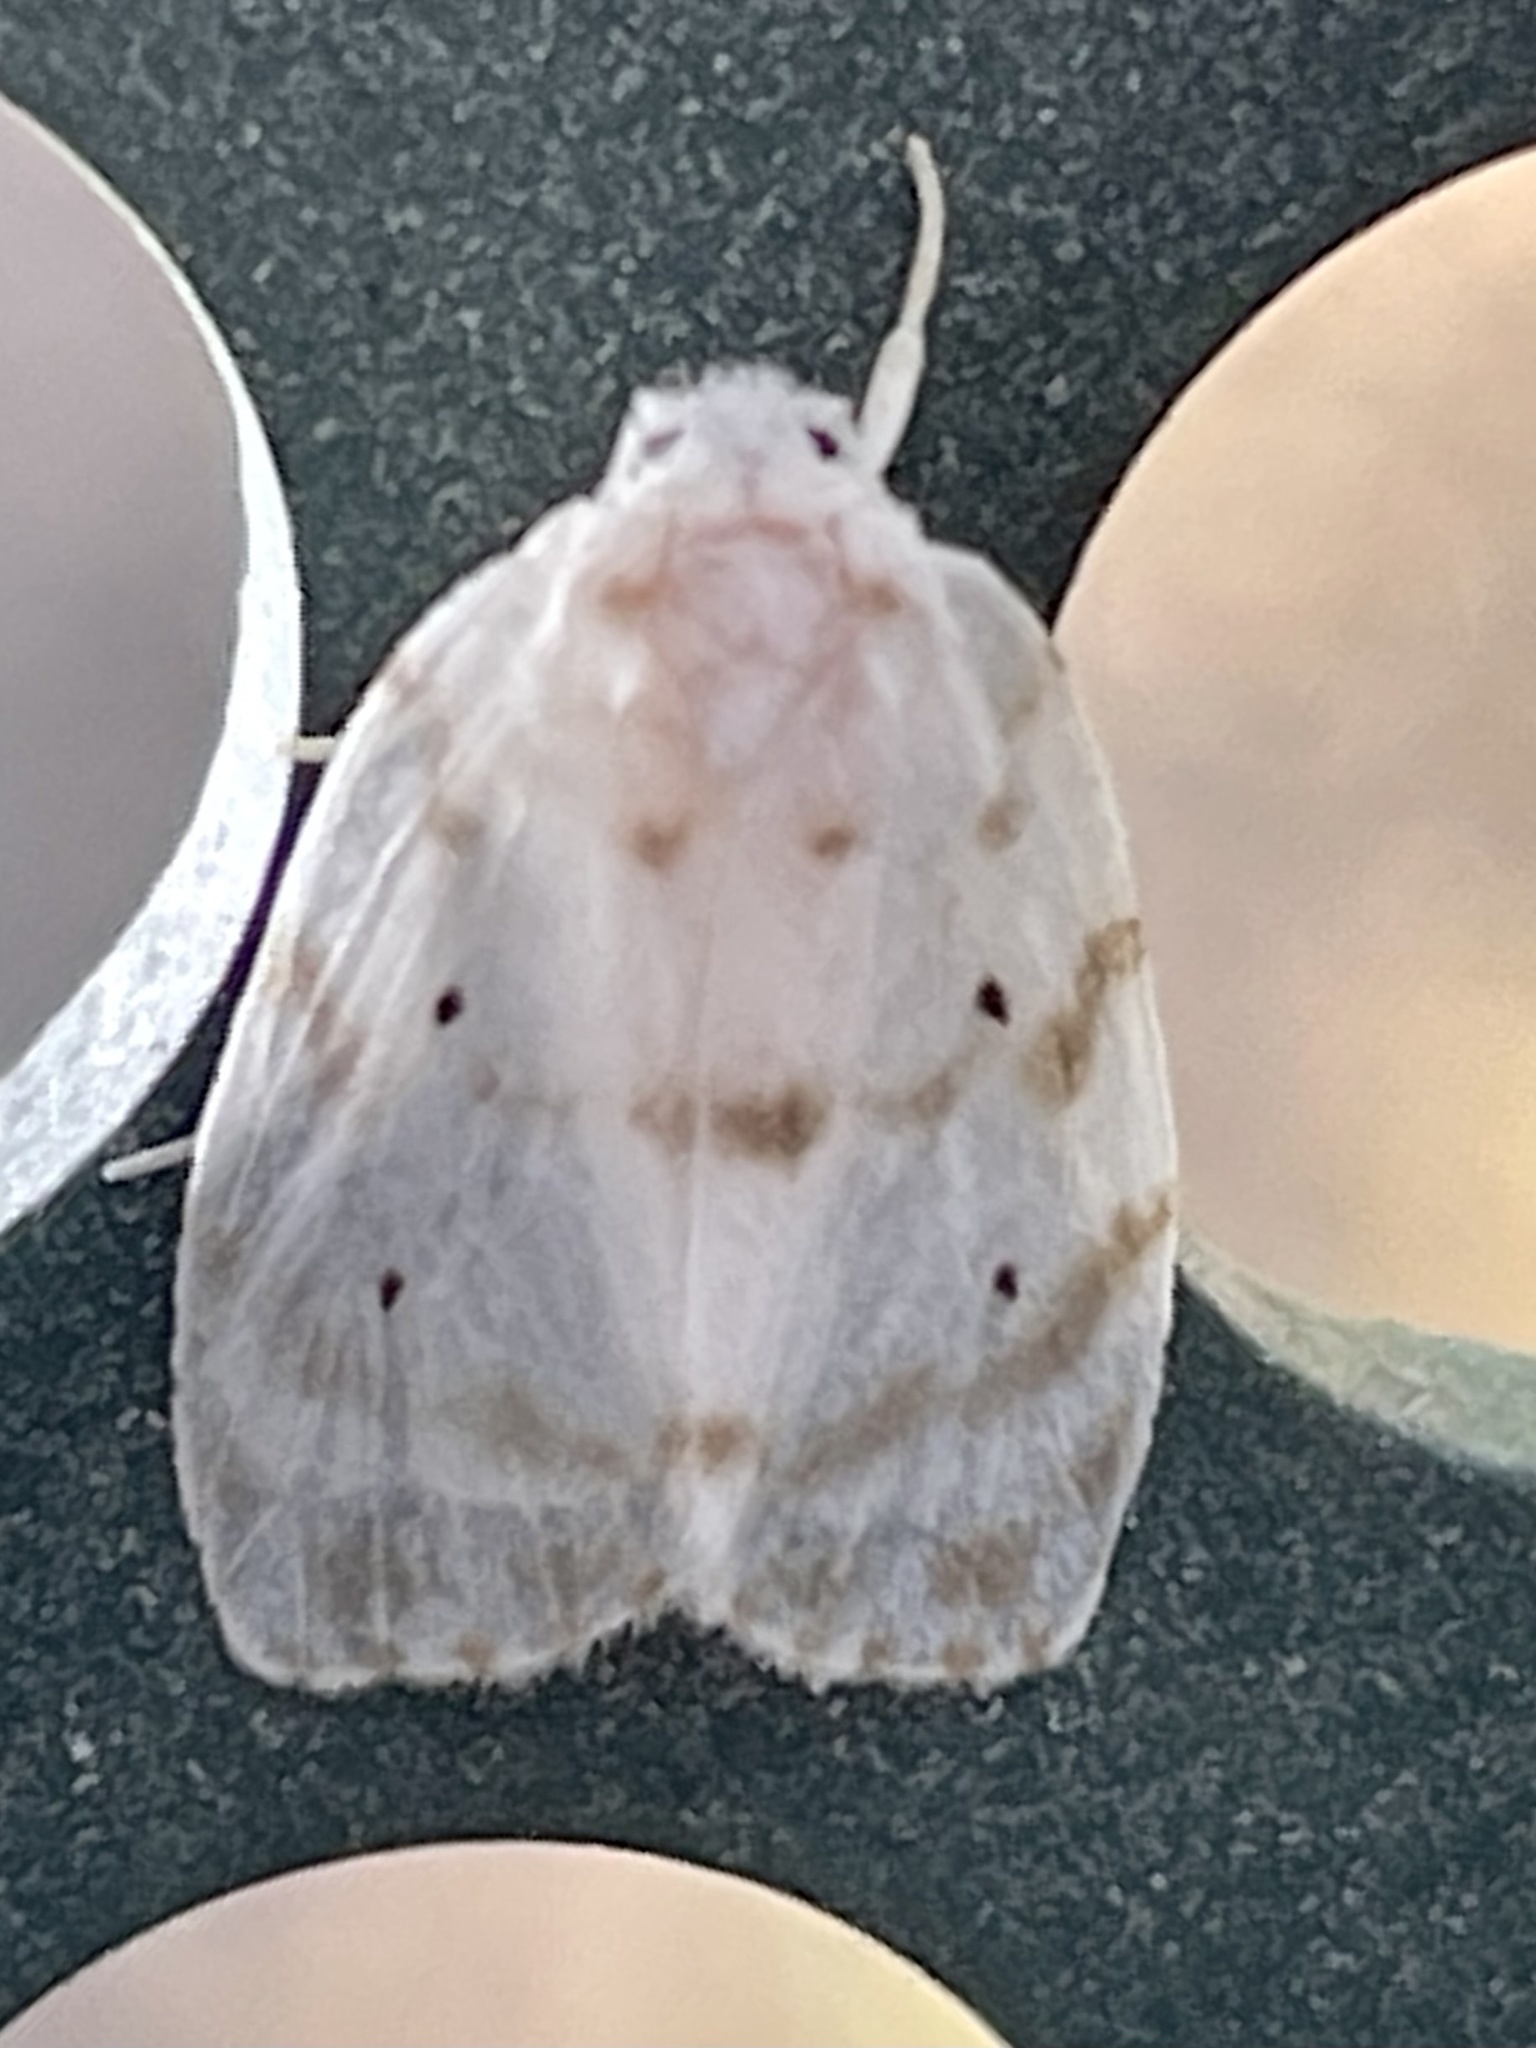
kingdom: Animalia
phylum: Arthropoda
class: Insecta
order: Lepidoptera
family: Erebidae
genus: Schistophleps
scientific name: Schistophleps albida
